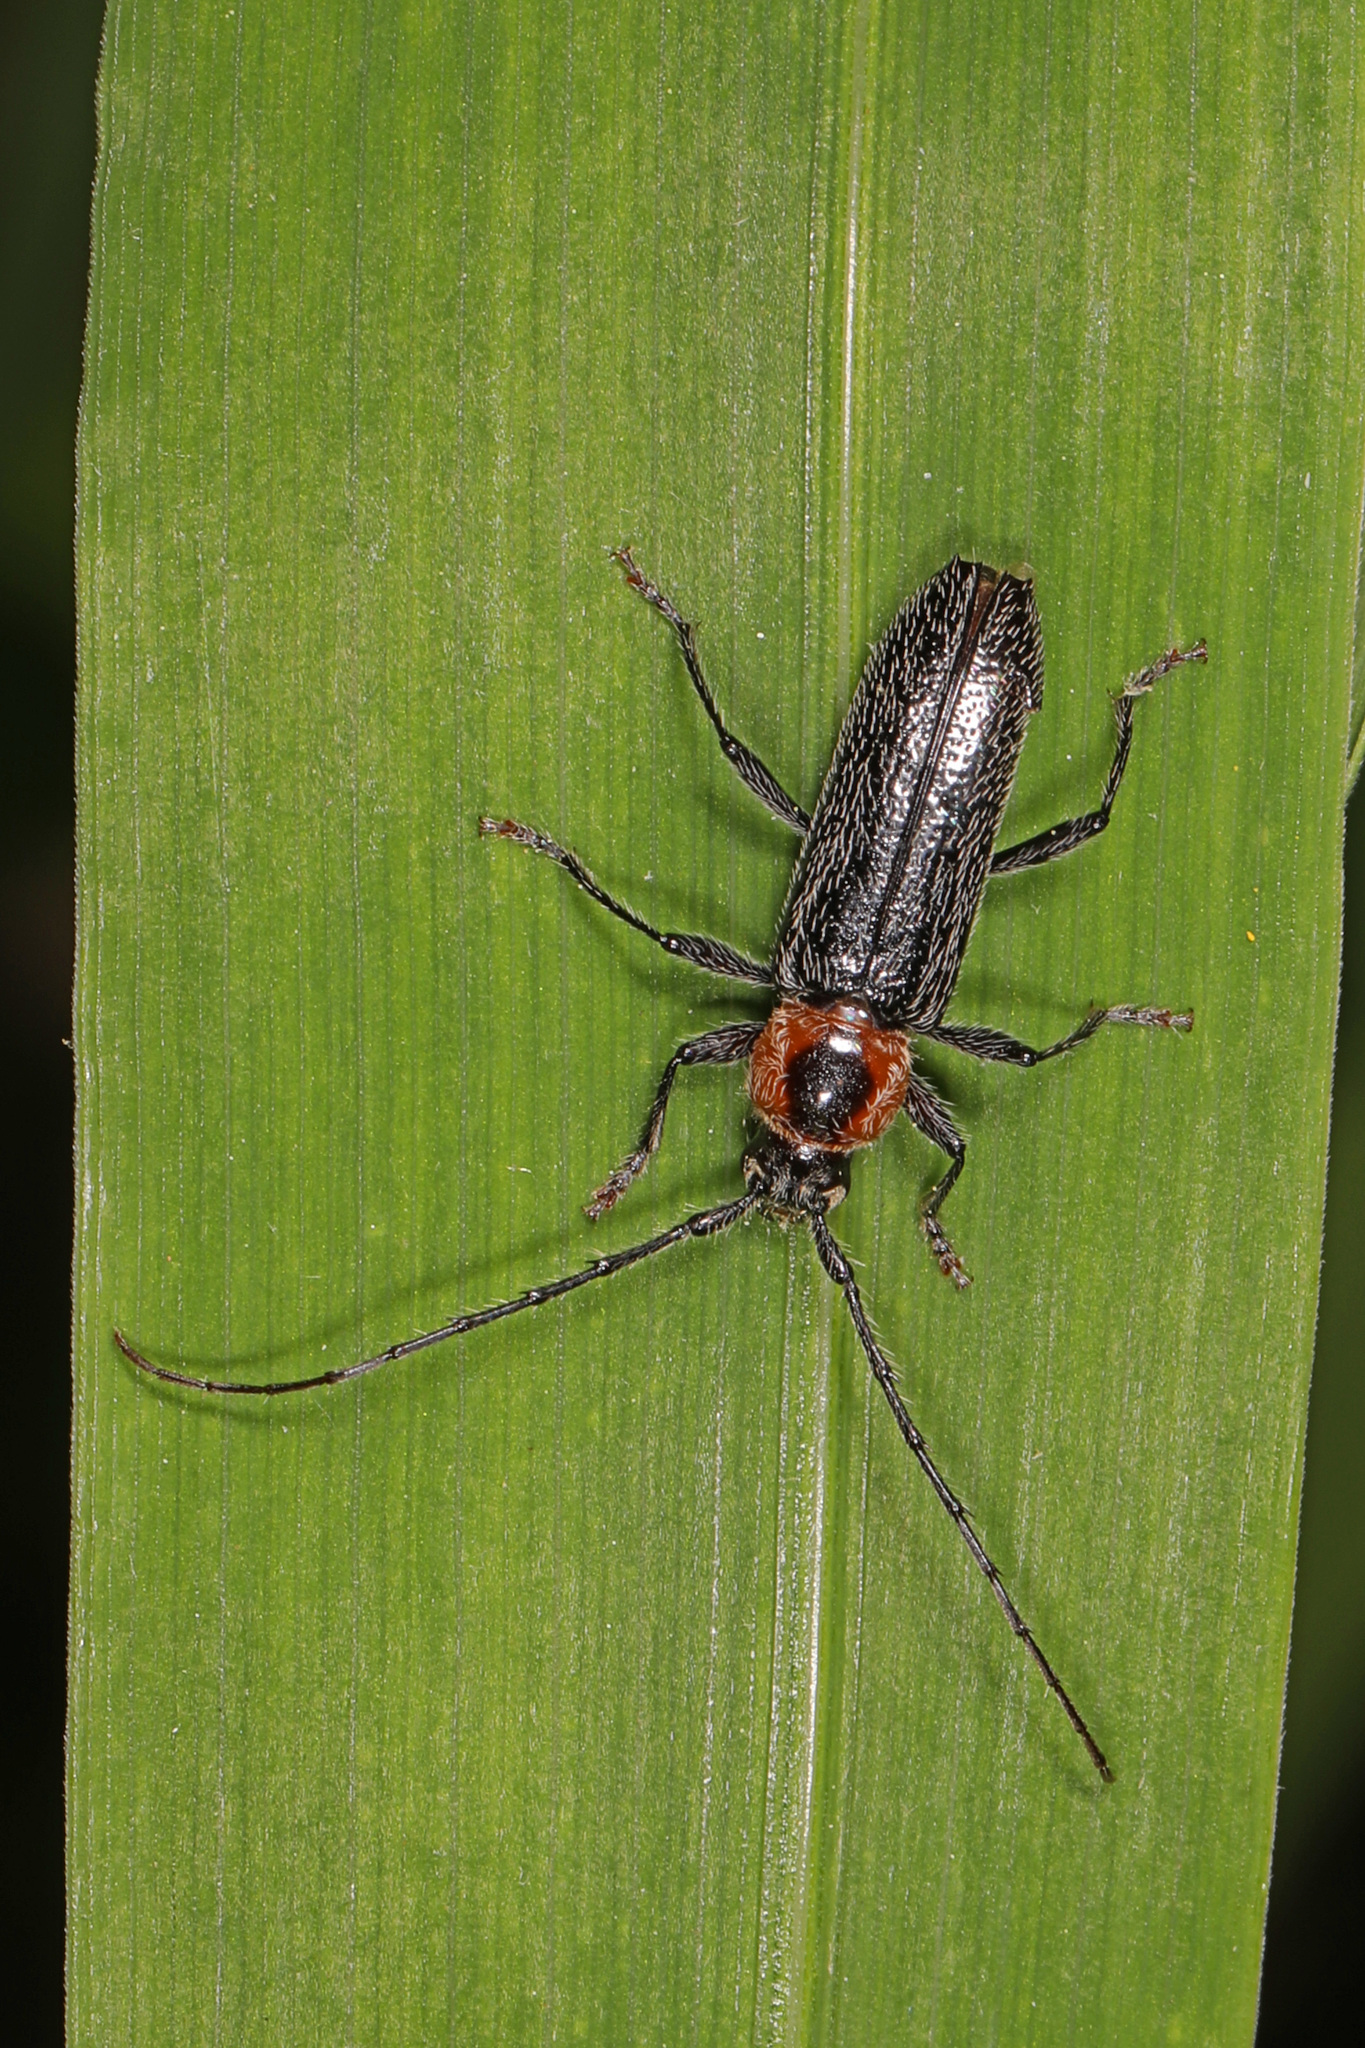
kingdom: Animalia
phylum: Arthropoda
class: Insecta
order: Coleoptera
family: Cerambycidae
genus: Stenosphenus
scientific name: Stenosphenus notatus
